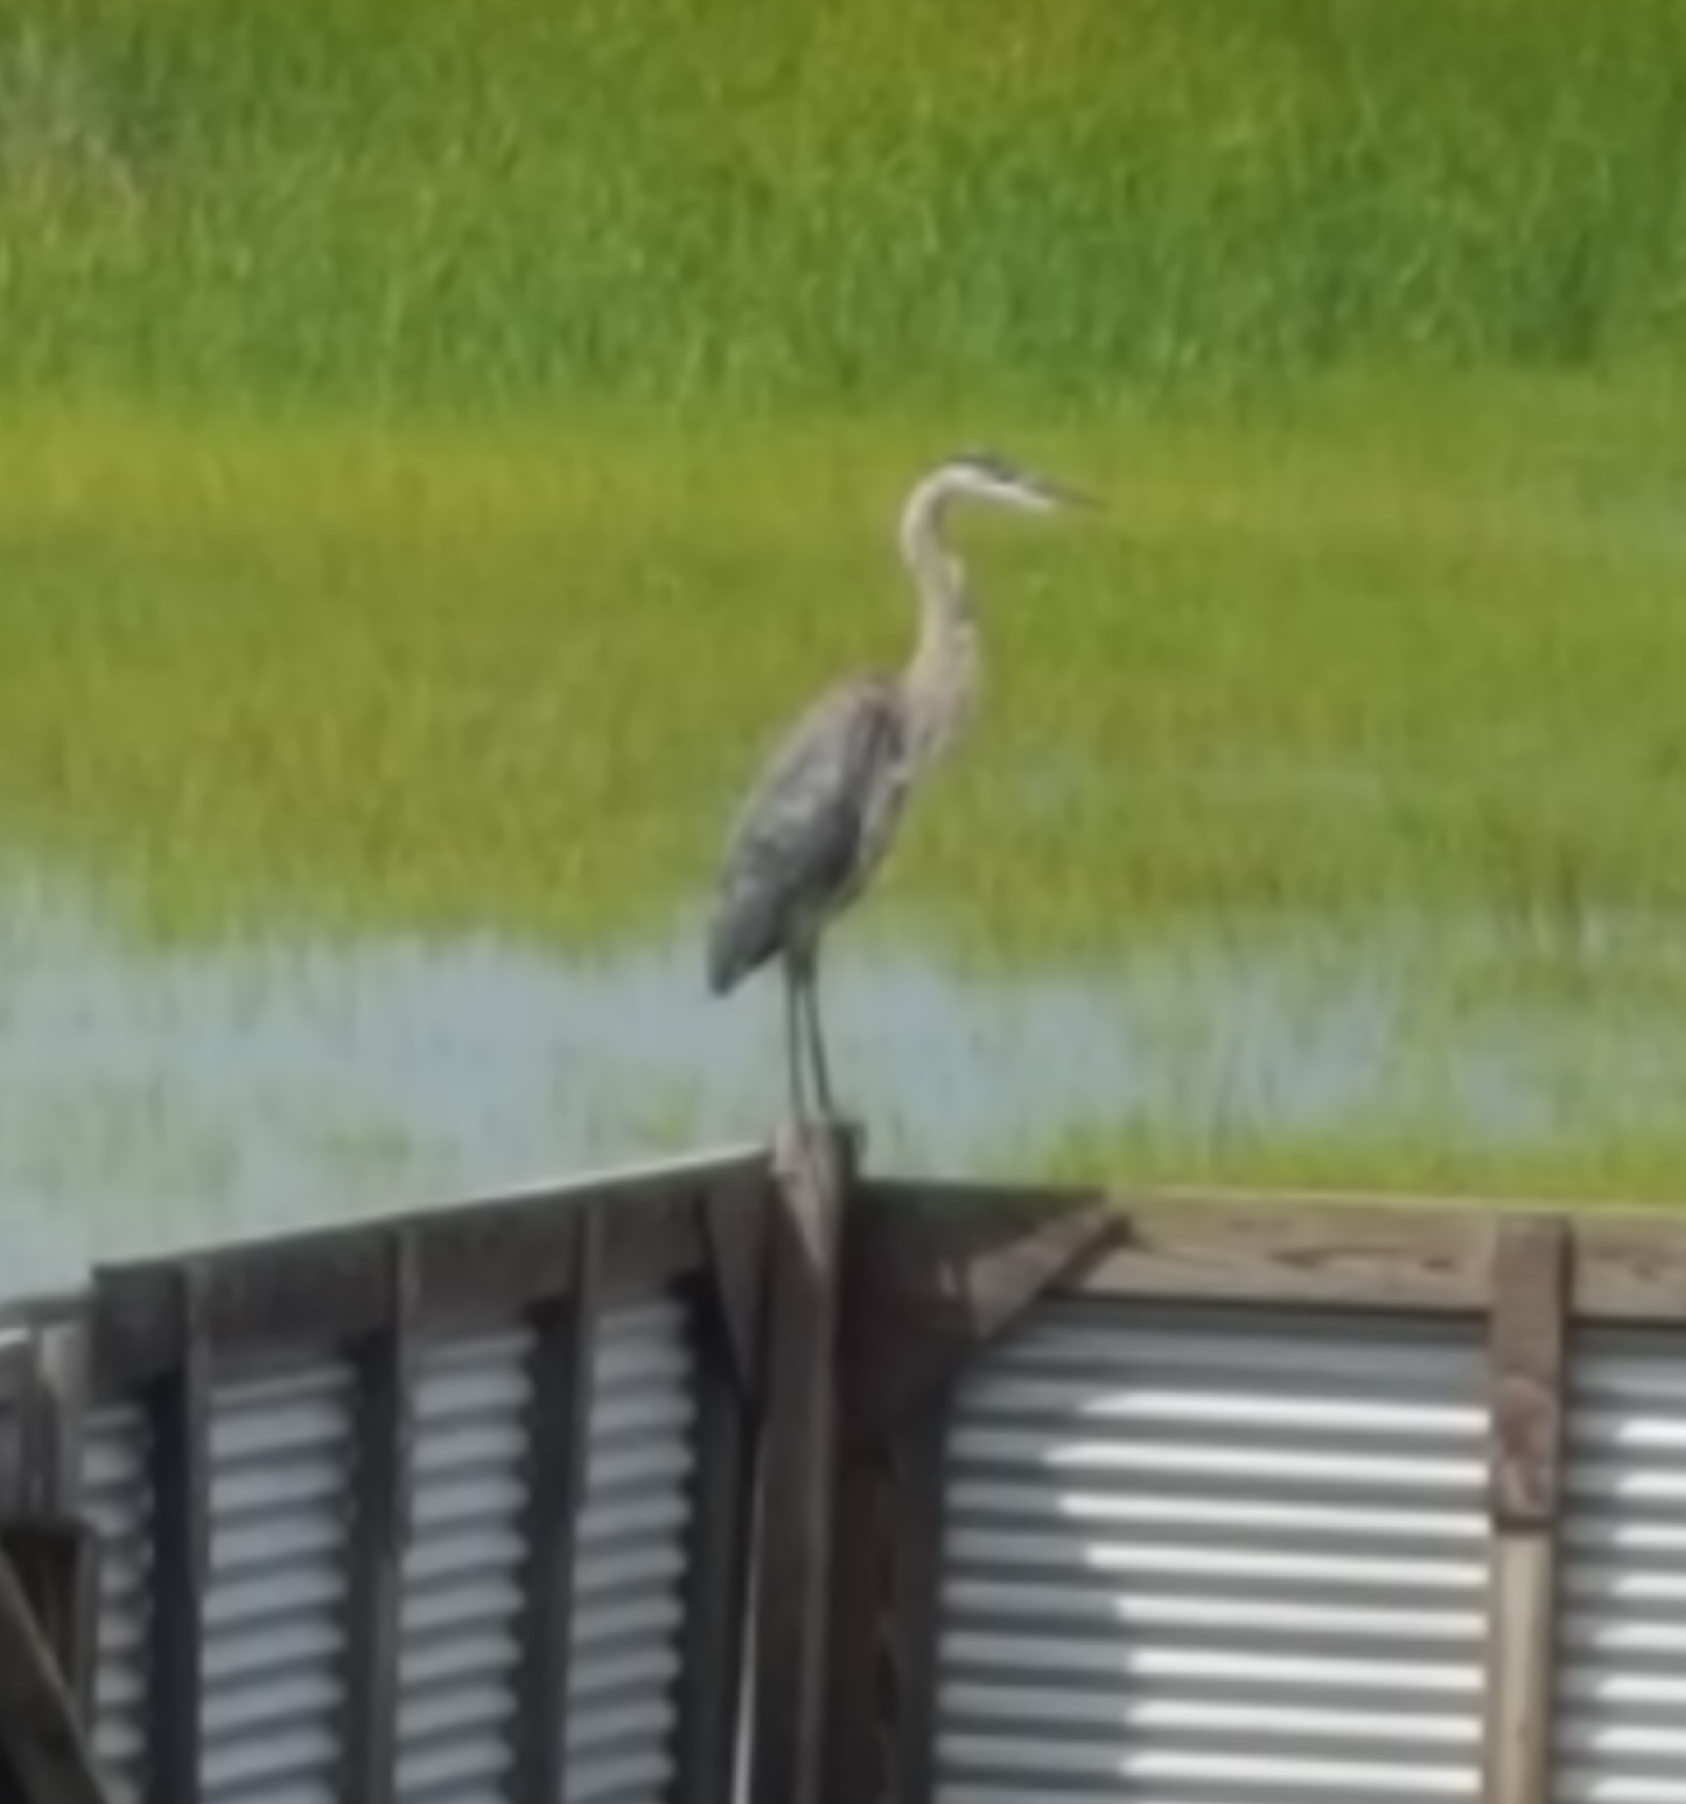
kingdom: Animalia
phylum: Chordata
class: Aves
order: Pelecaniformes
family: Ardeidae
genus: Ardea
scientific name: Ardea herodias
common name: Great blue heron
